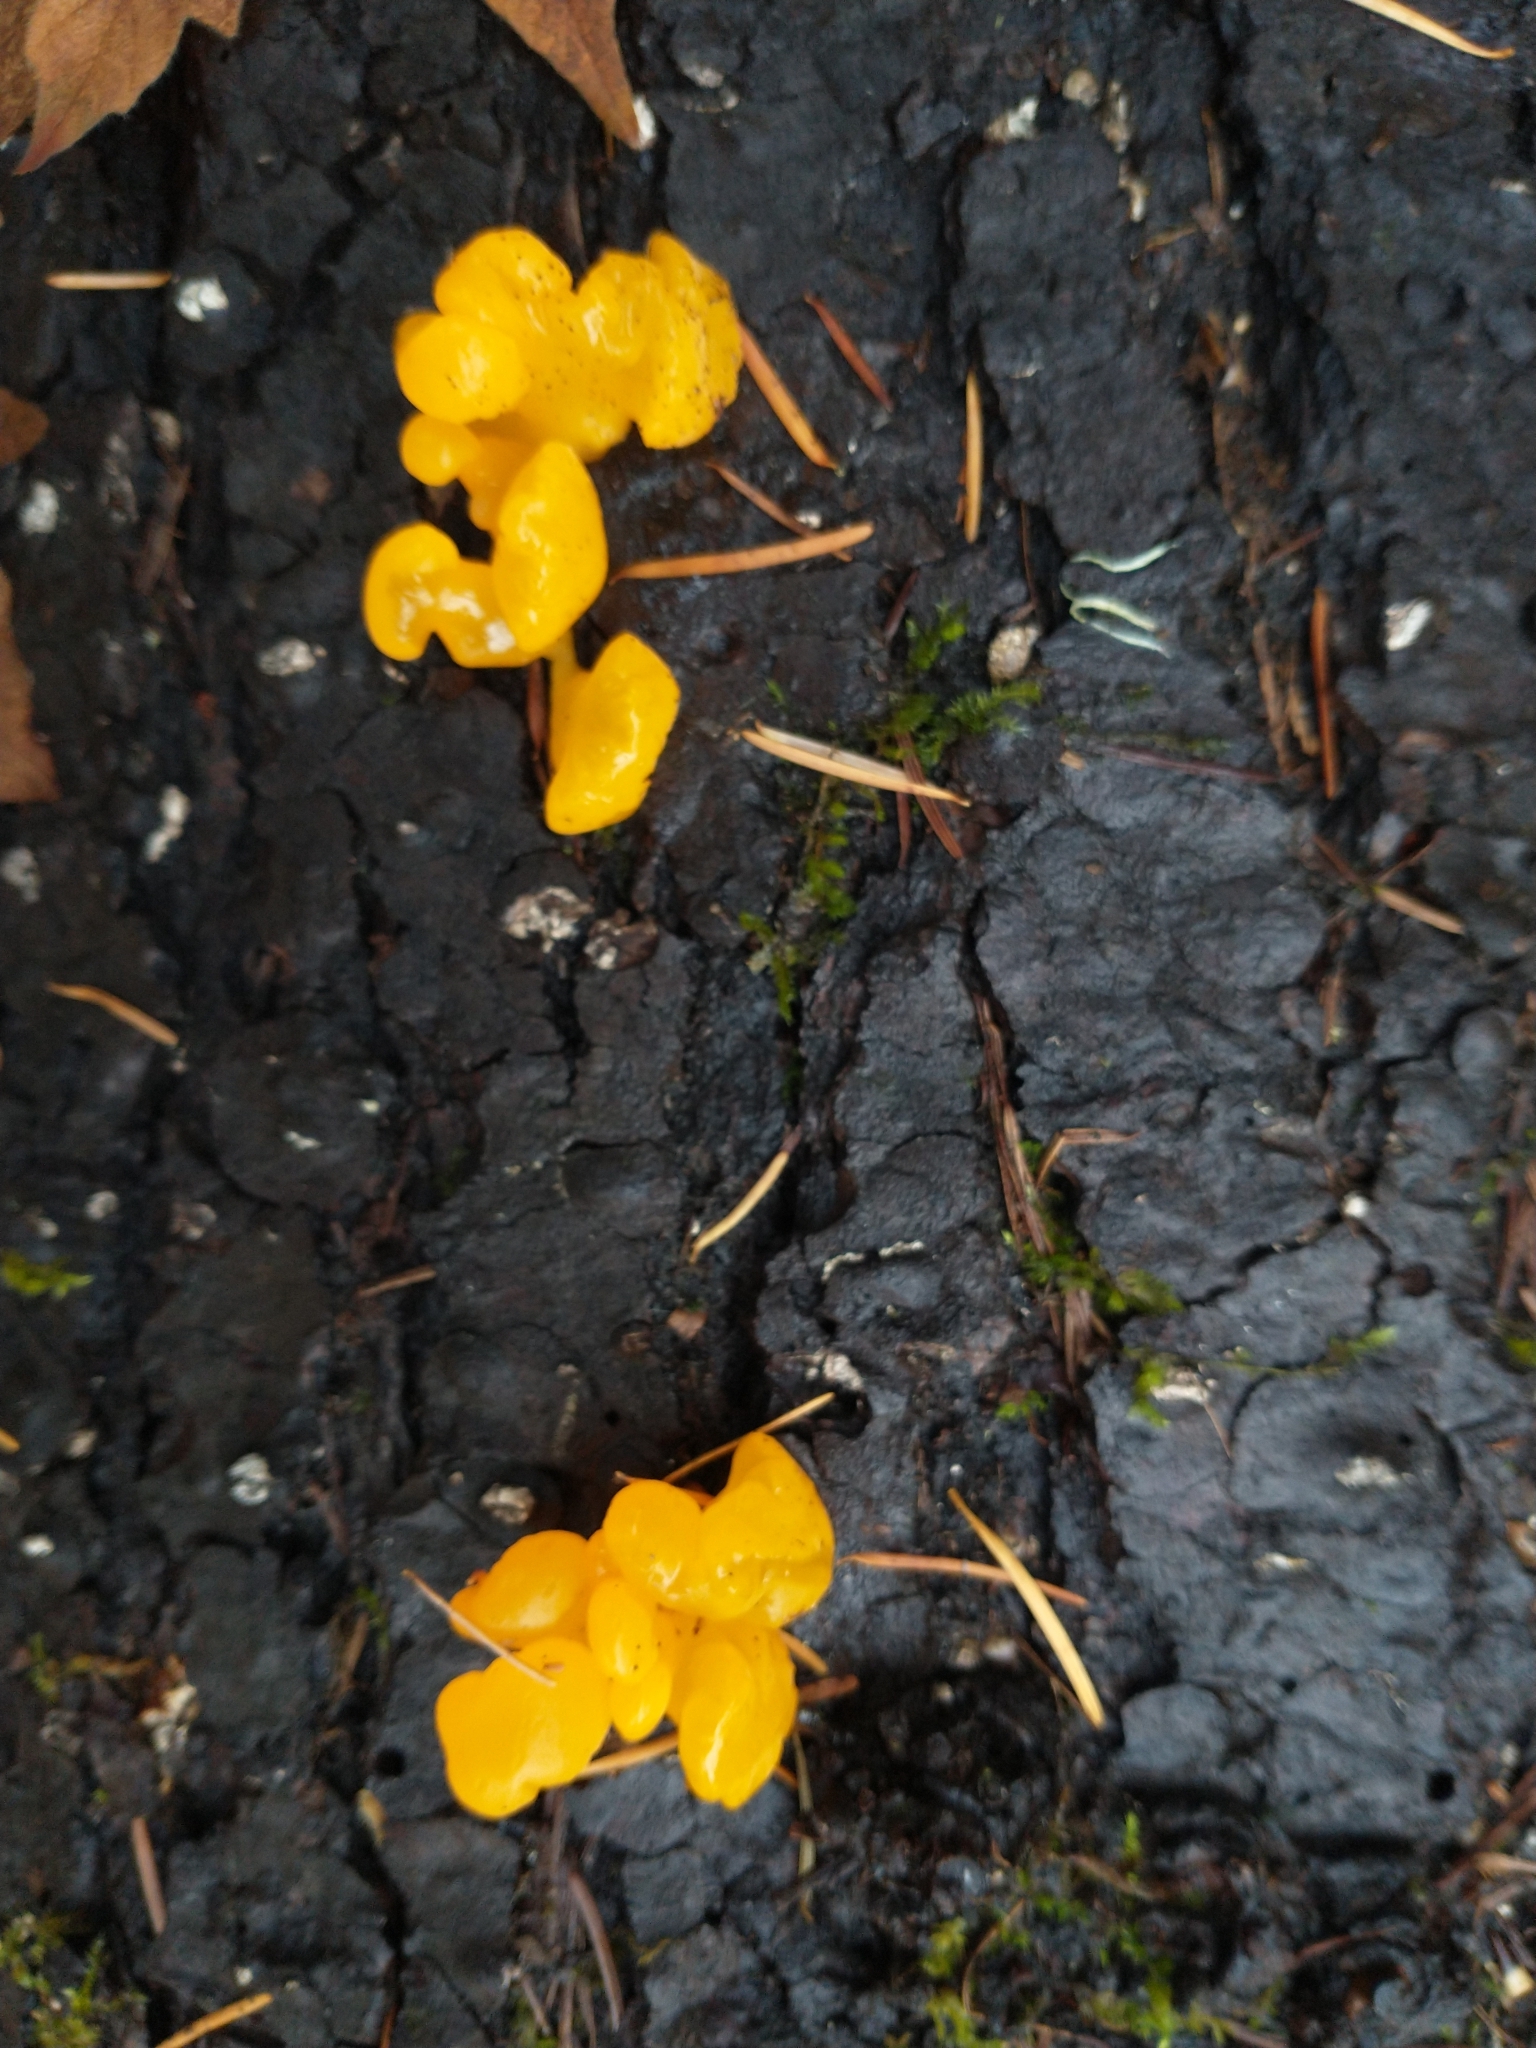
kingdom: Fungi
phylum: Basidiomycota
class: Dacrymycetes
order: Dacrymycetales
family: Dacrymycetaceae
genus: Dacrymyces
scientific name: Dacrymyces chrysospermus
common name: Orange jelly spot
